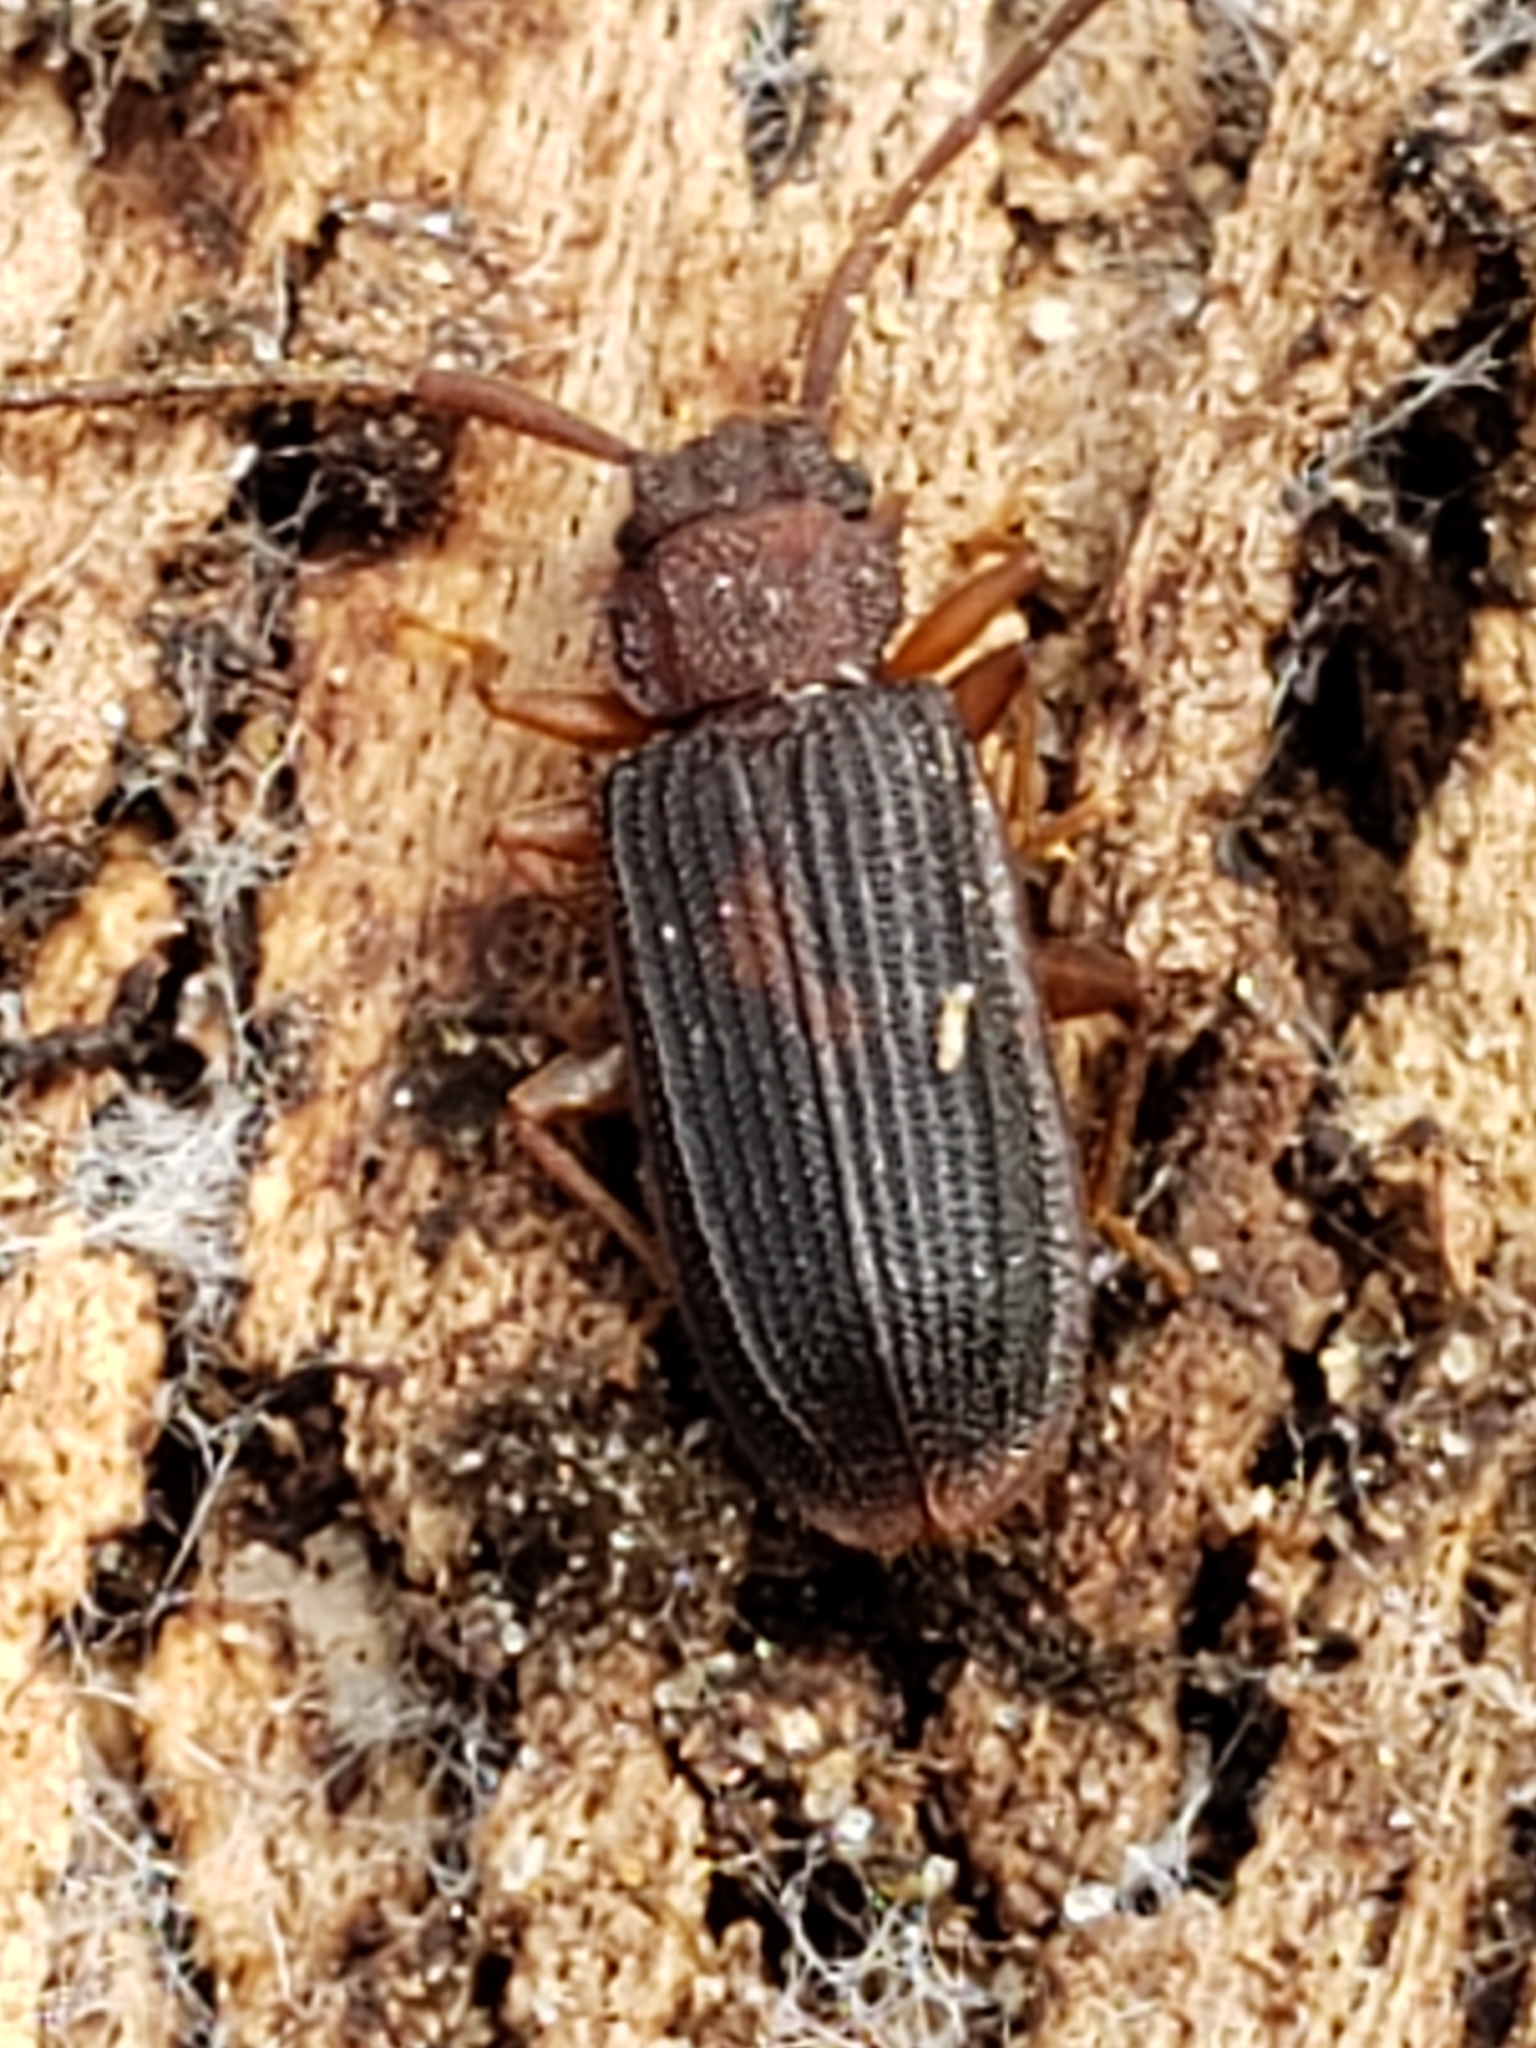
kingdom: Animalia
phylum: Arthropoda
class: Insecta
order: Coleoptera
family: Silvanidae
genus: Uleiota
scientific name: Uleiota dubia
